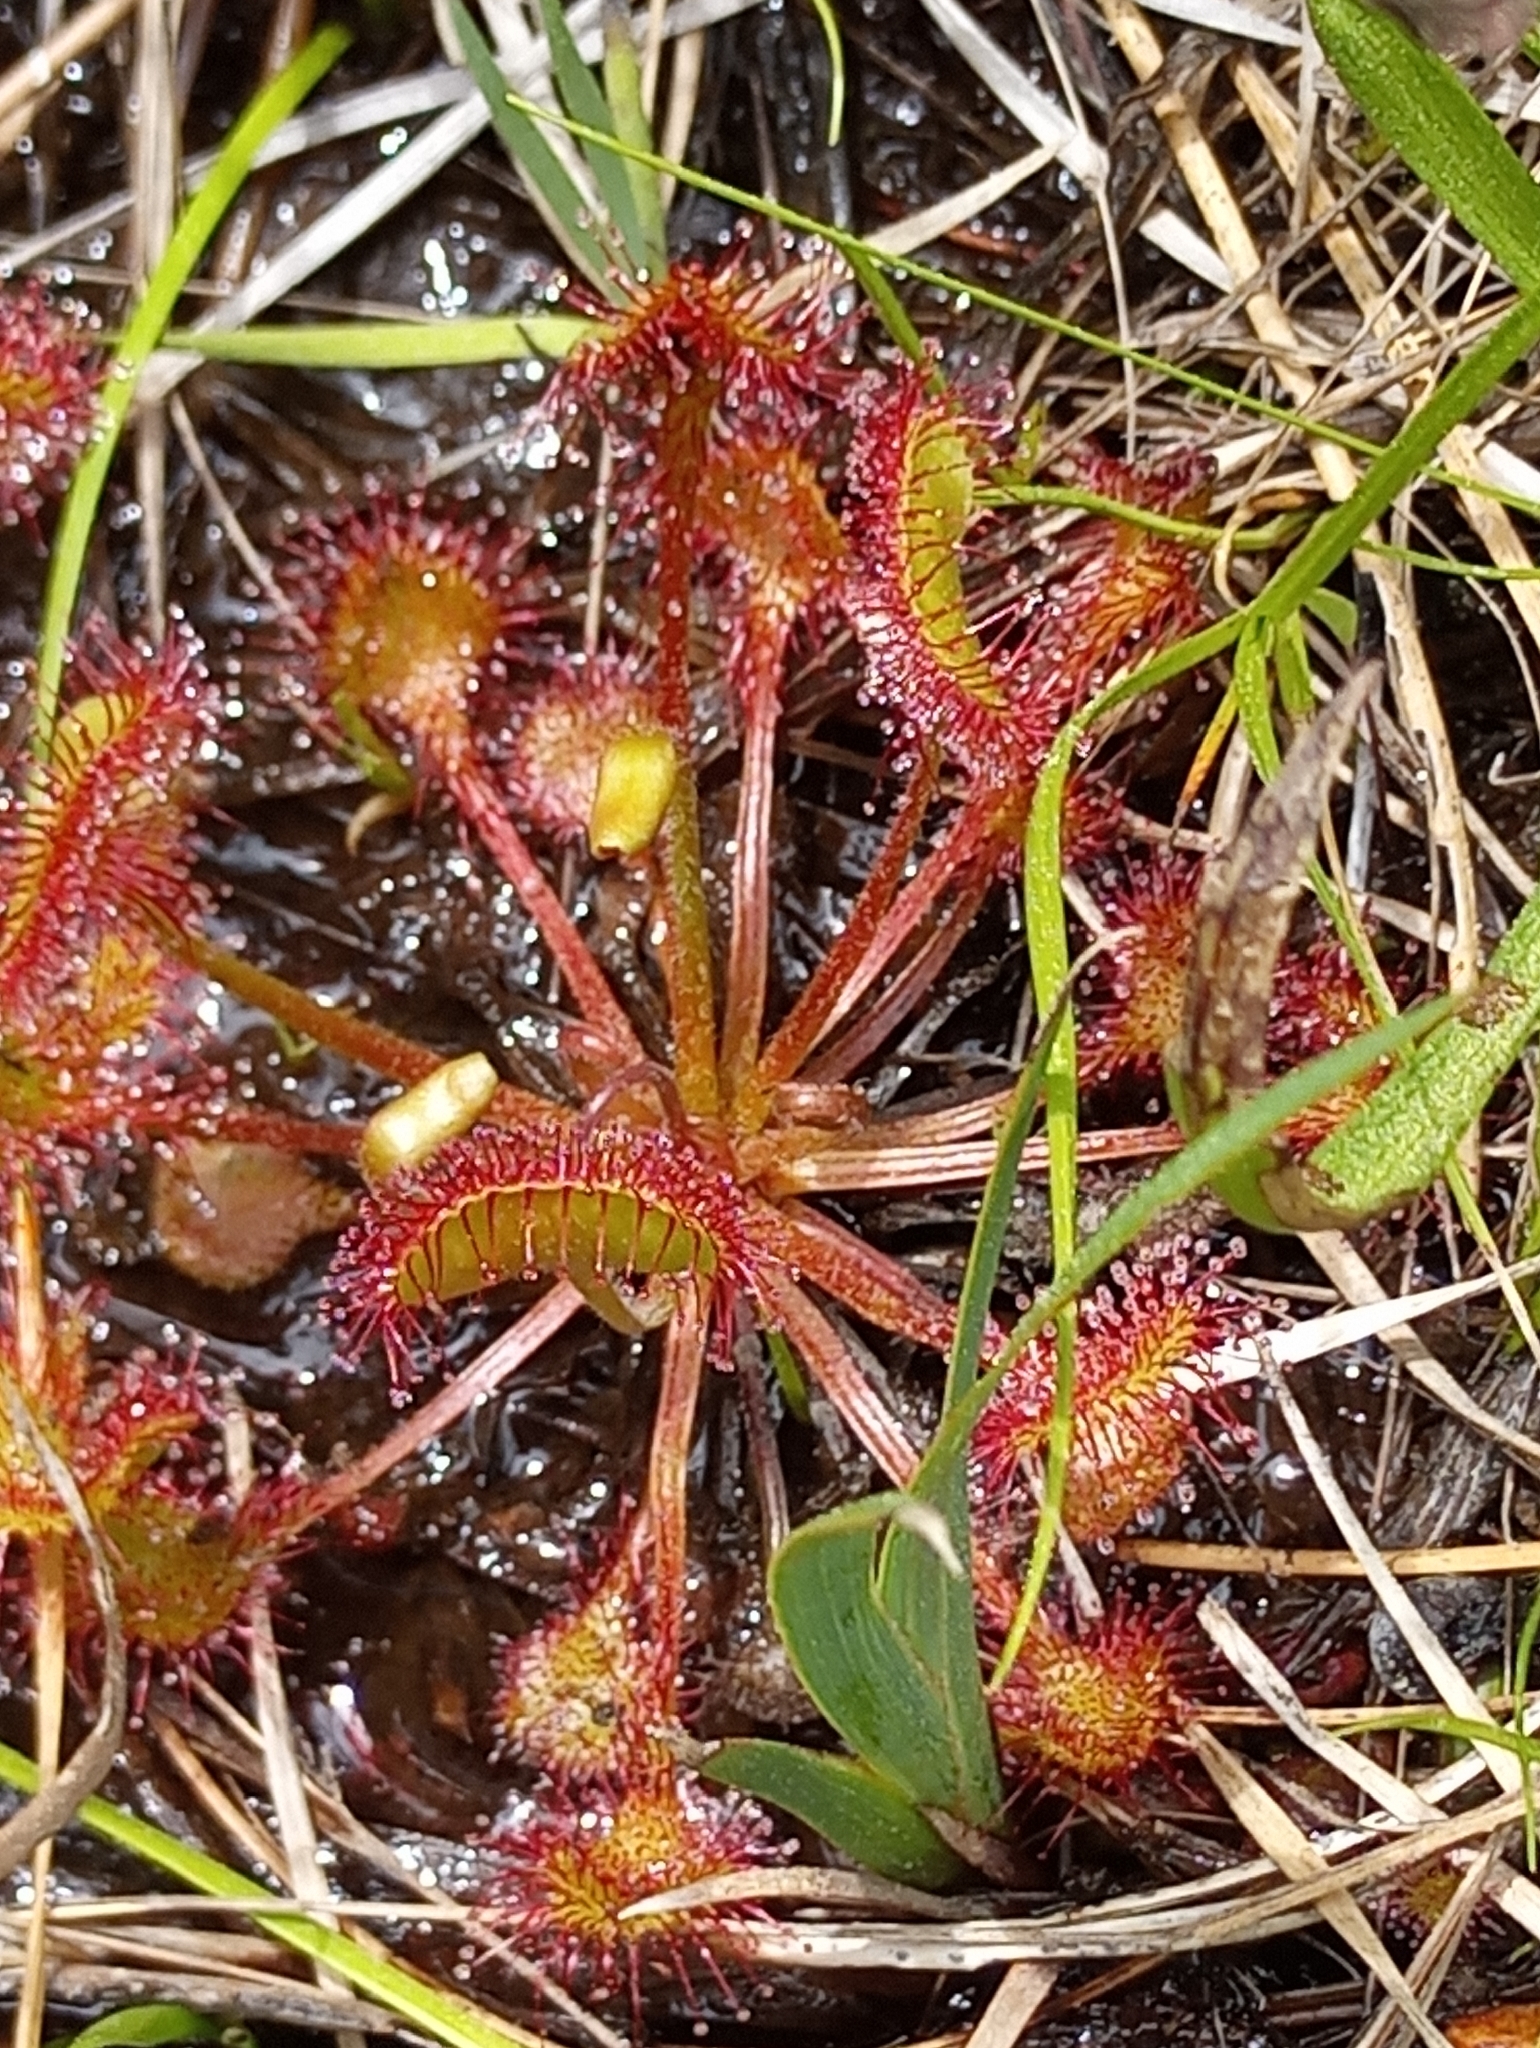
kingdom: Plantae
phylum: Tracheophyta
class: Magnoliopsida
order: Caryophyllales
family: Droseraceae
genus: Drosera
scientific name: Drosera rotundifolia
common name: Round-leaved sundew
